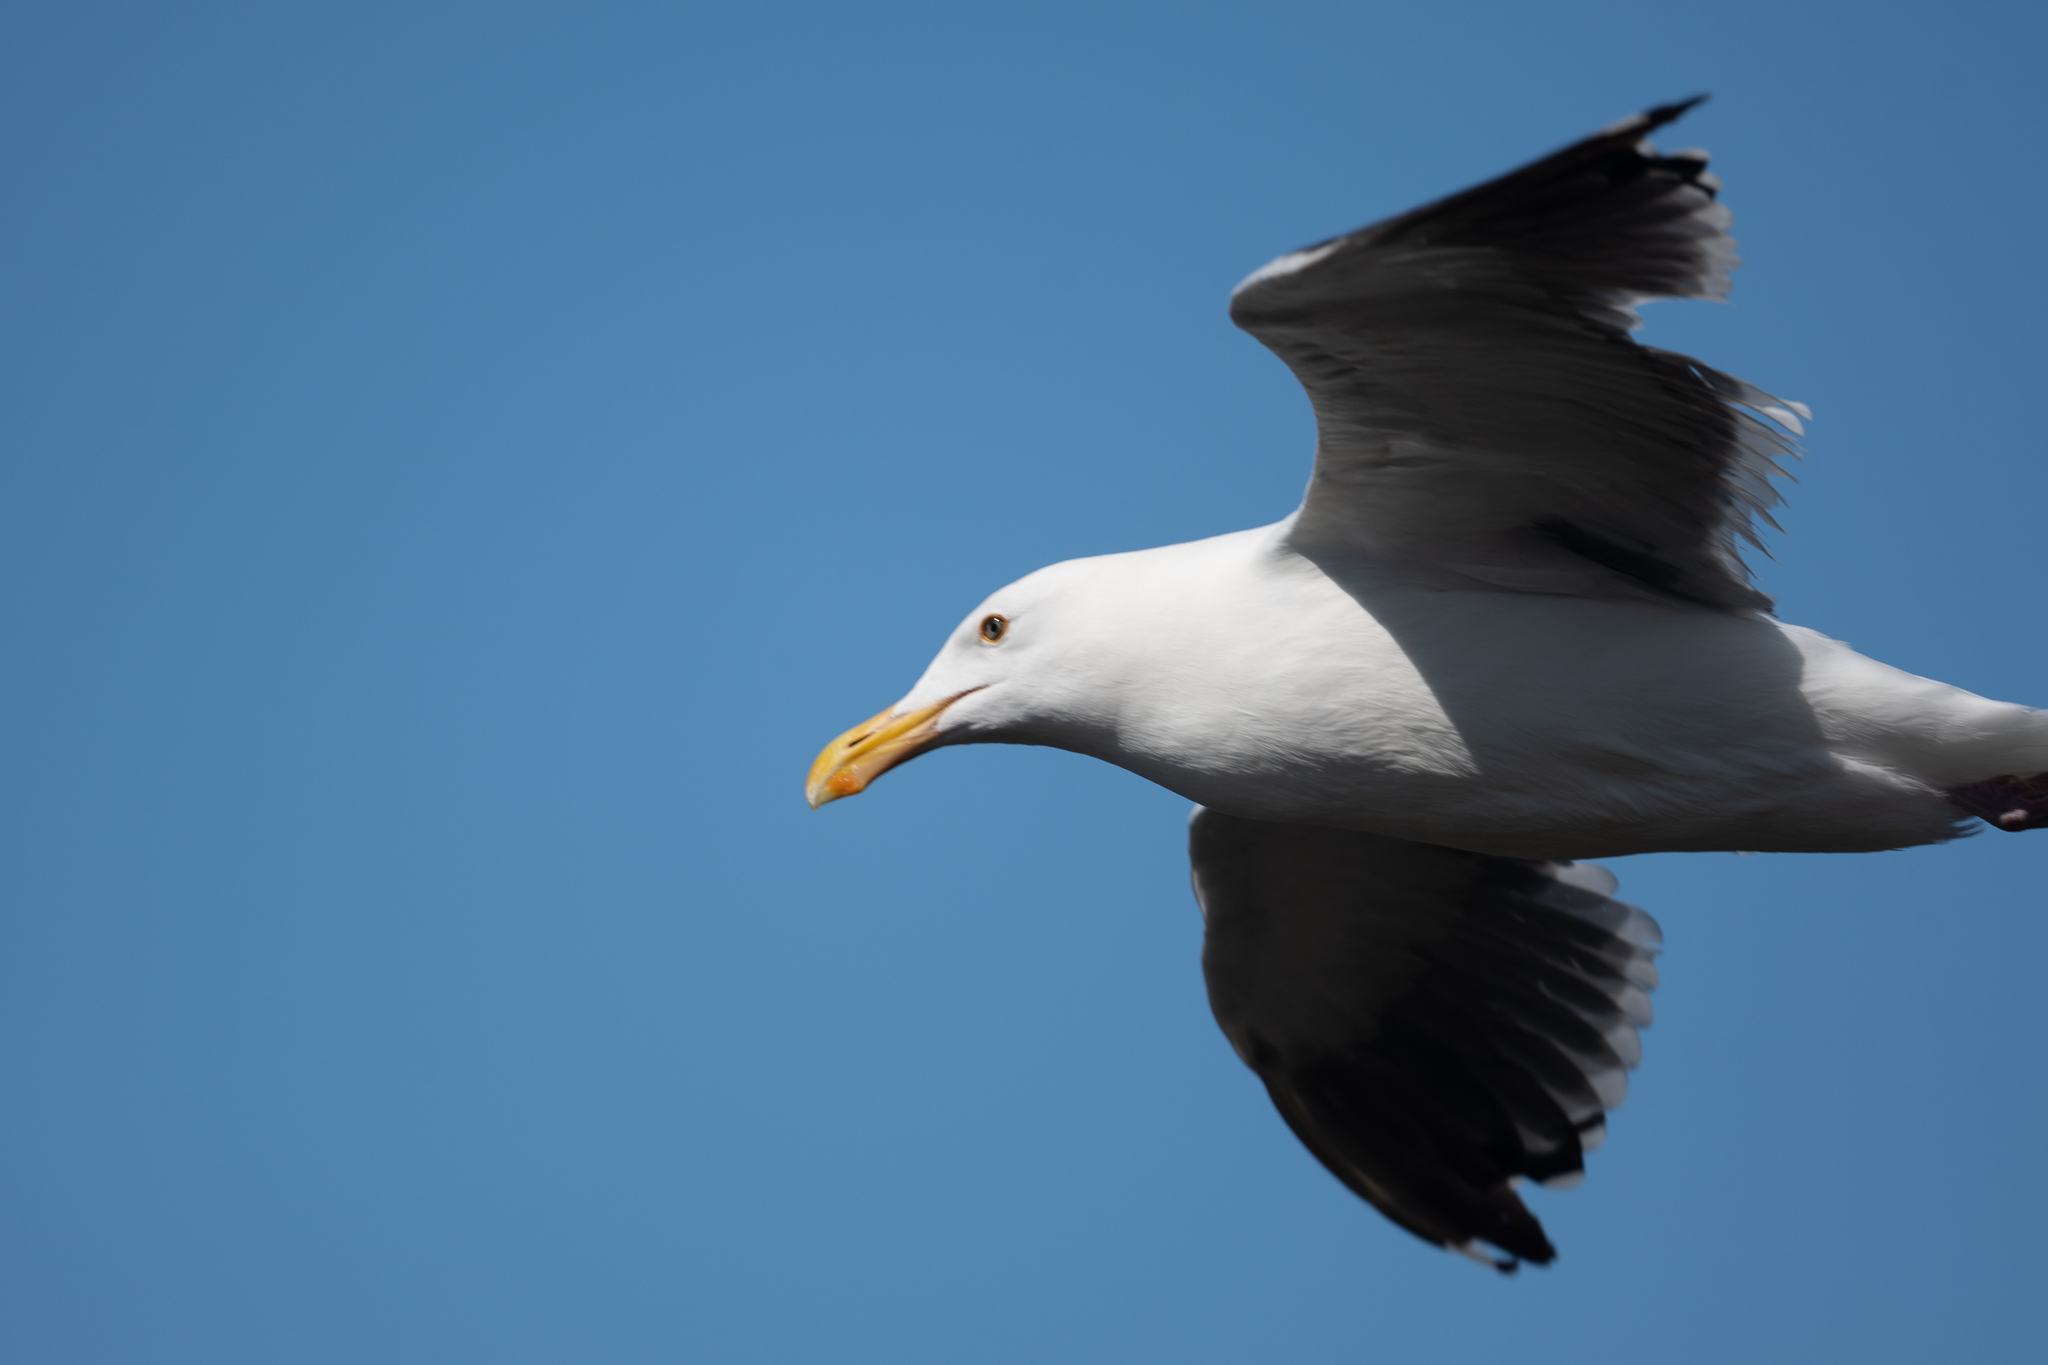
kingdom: Animalia
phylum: Chordata
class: Aves
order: Charadriiformes
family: Laridae
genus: Larus
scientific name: Larus occidentalis
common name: Western gull
